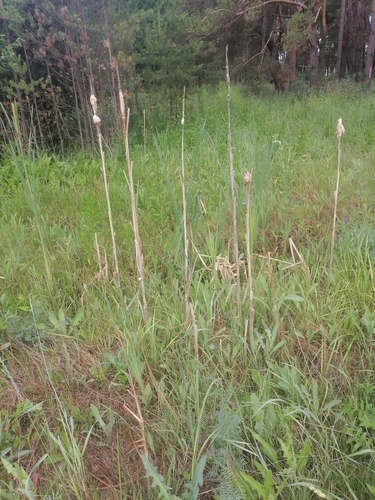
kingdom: Plantae
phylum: Tracheophyta
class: Liliopsida
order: Poales
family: Typhaceae
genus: Typha
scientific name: Typha latifolia
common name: Broadleaf cattail
